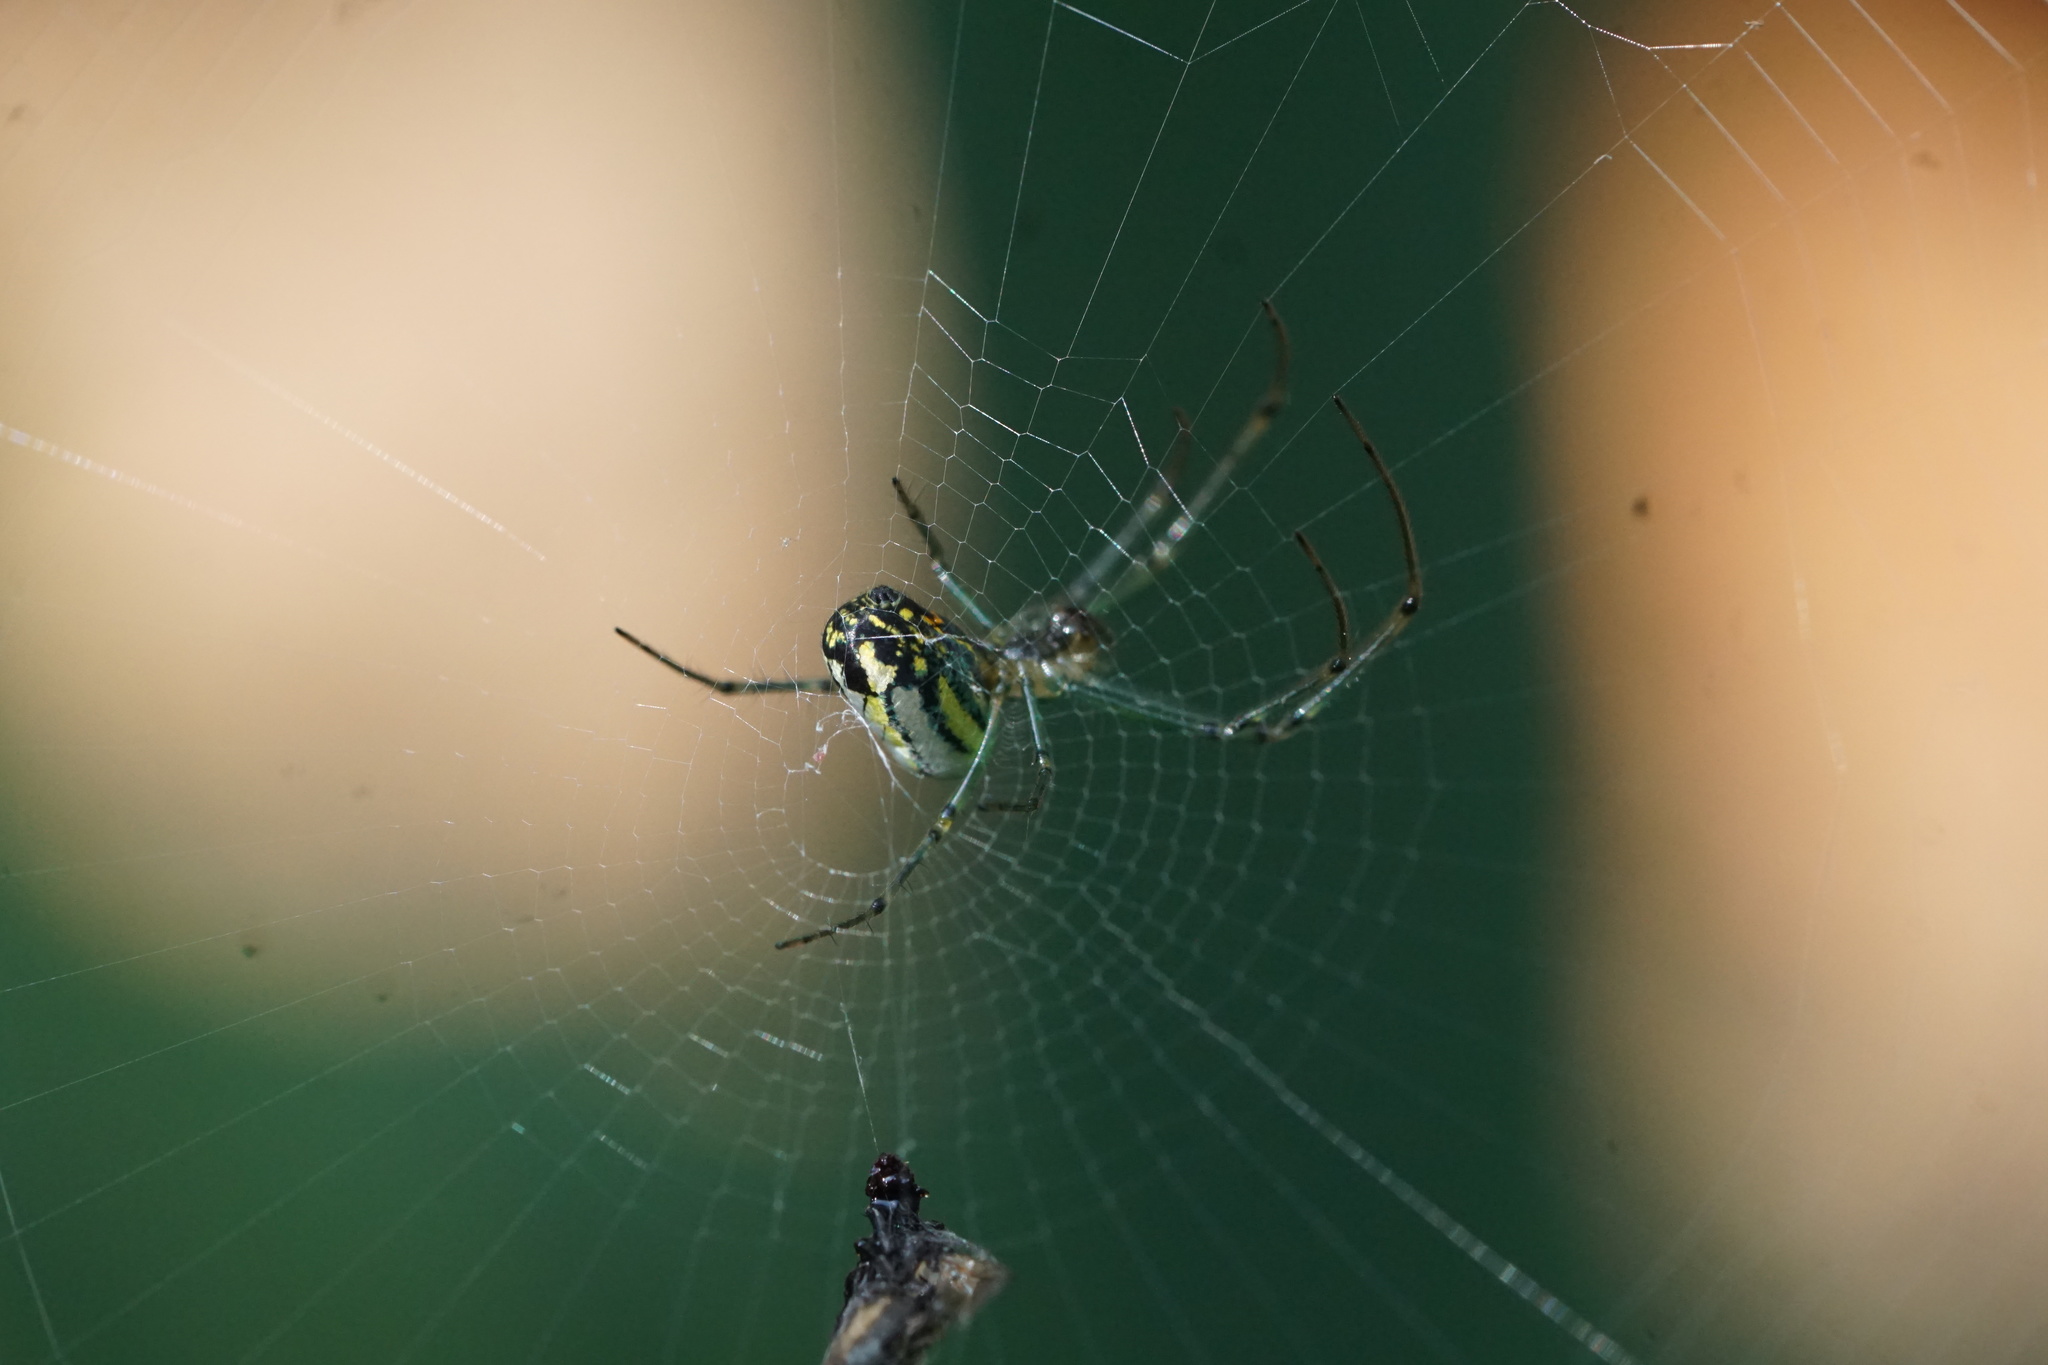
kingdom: Animalia
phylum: Arthropoda
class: Arachnida
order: Araneae
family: Tetragnathidae
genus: Leucauge
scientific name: Leucauge venusta
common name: Longjawed orb weavers
